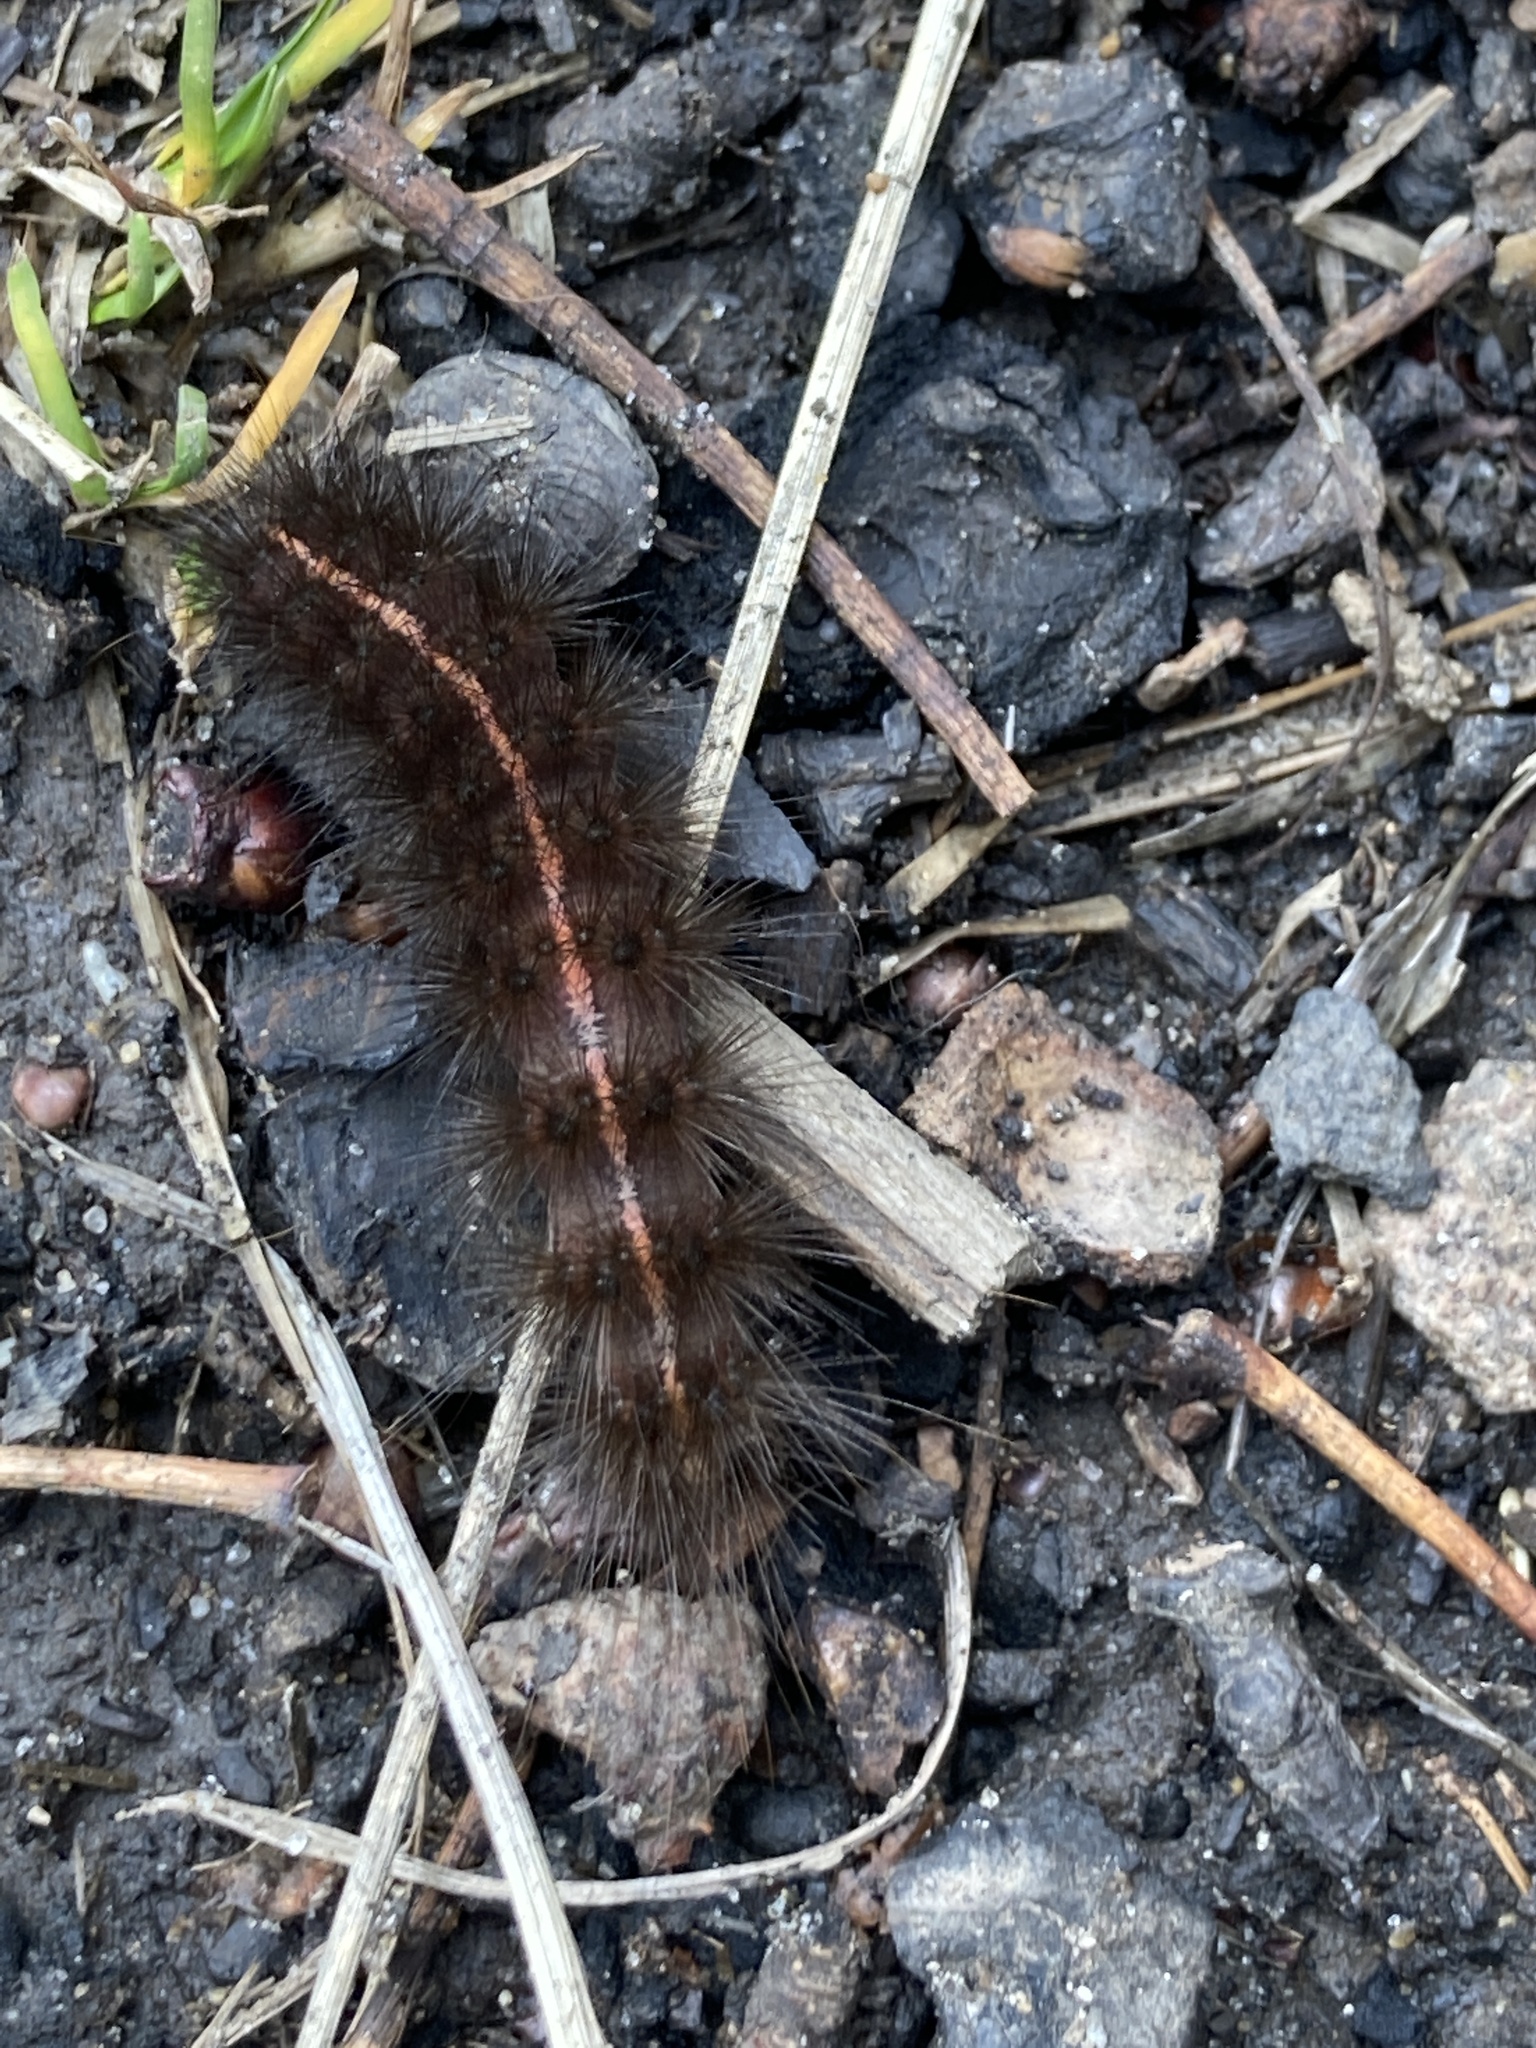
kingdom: Animalia
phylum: Arthropoda
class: Insecta
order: Lepidoptera
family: Erebidae
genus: Spilosoma
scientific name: Spilosoma lubricipeda
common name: White ermine
